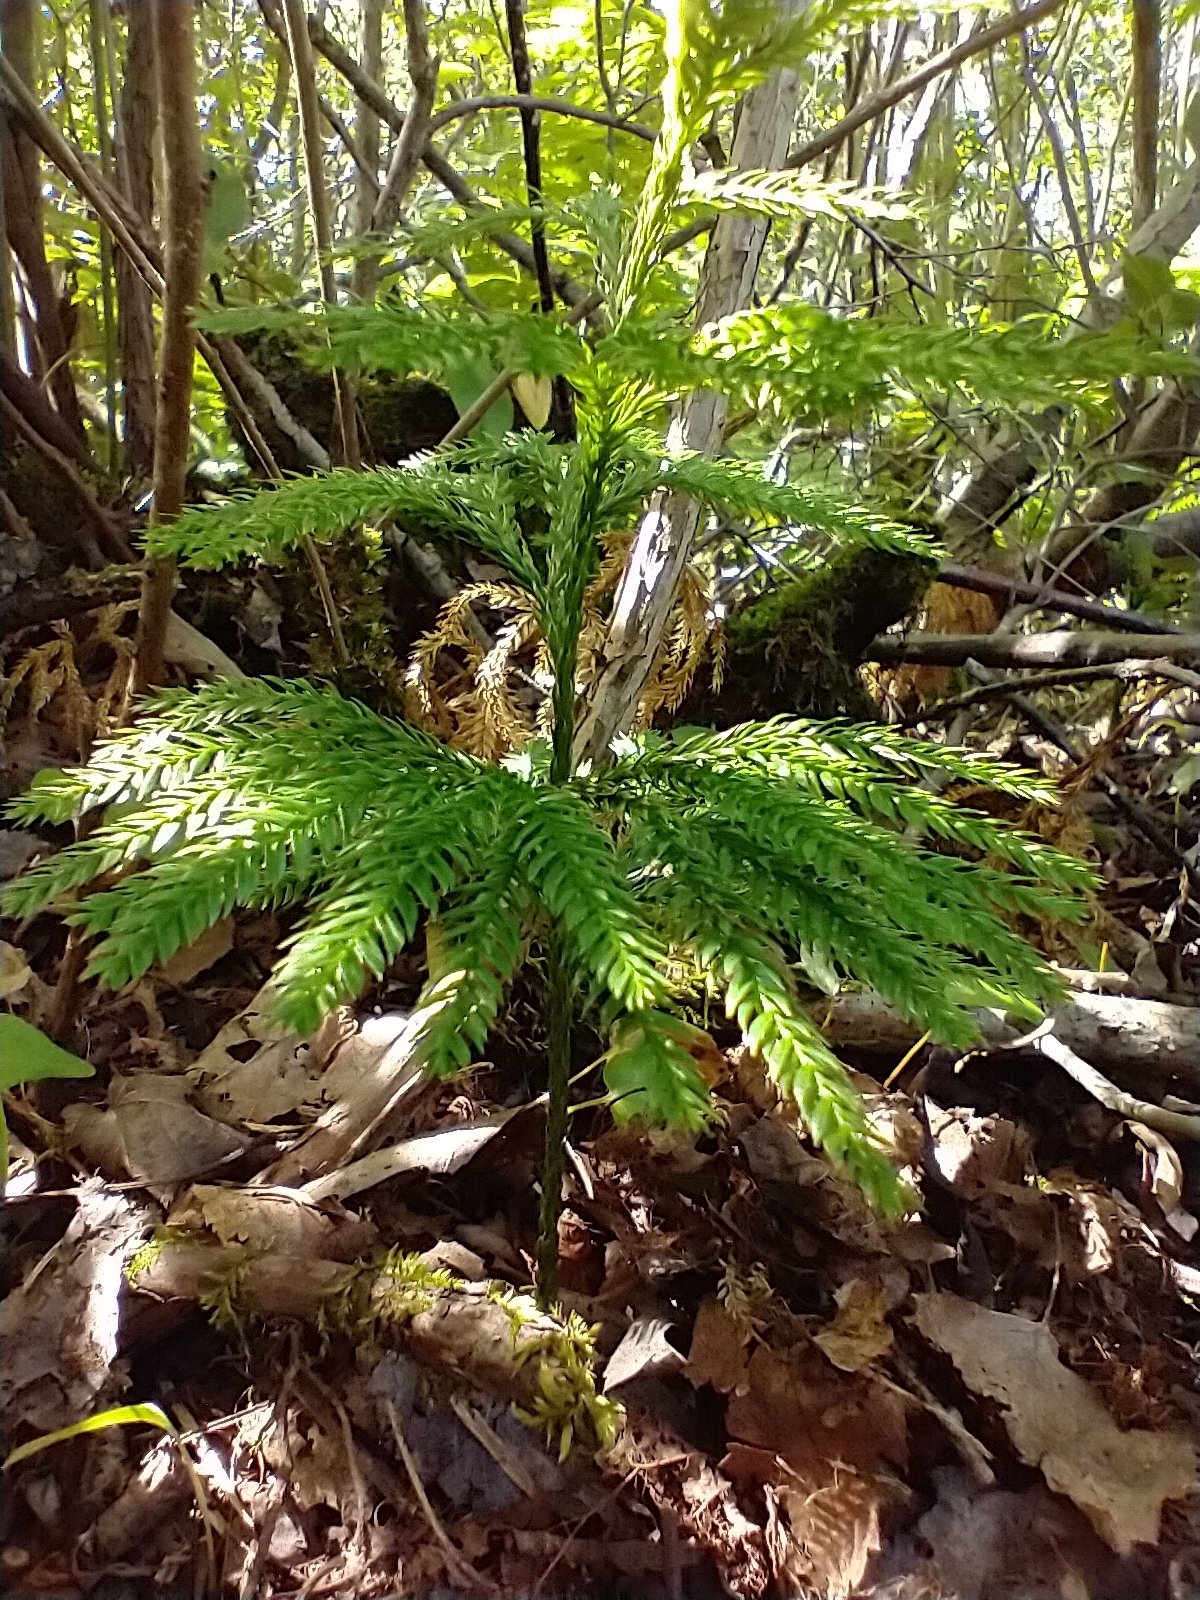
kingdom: Plantae
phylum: Tracheophyta
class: Lycopodiopsida
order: Lycopodiales
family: Lycopodiaceae
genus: Dendrolycopodium
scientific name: Dendrolycopodium obscurum
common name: Common ground-pine
